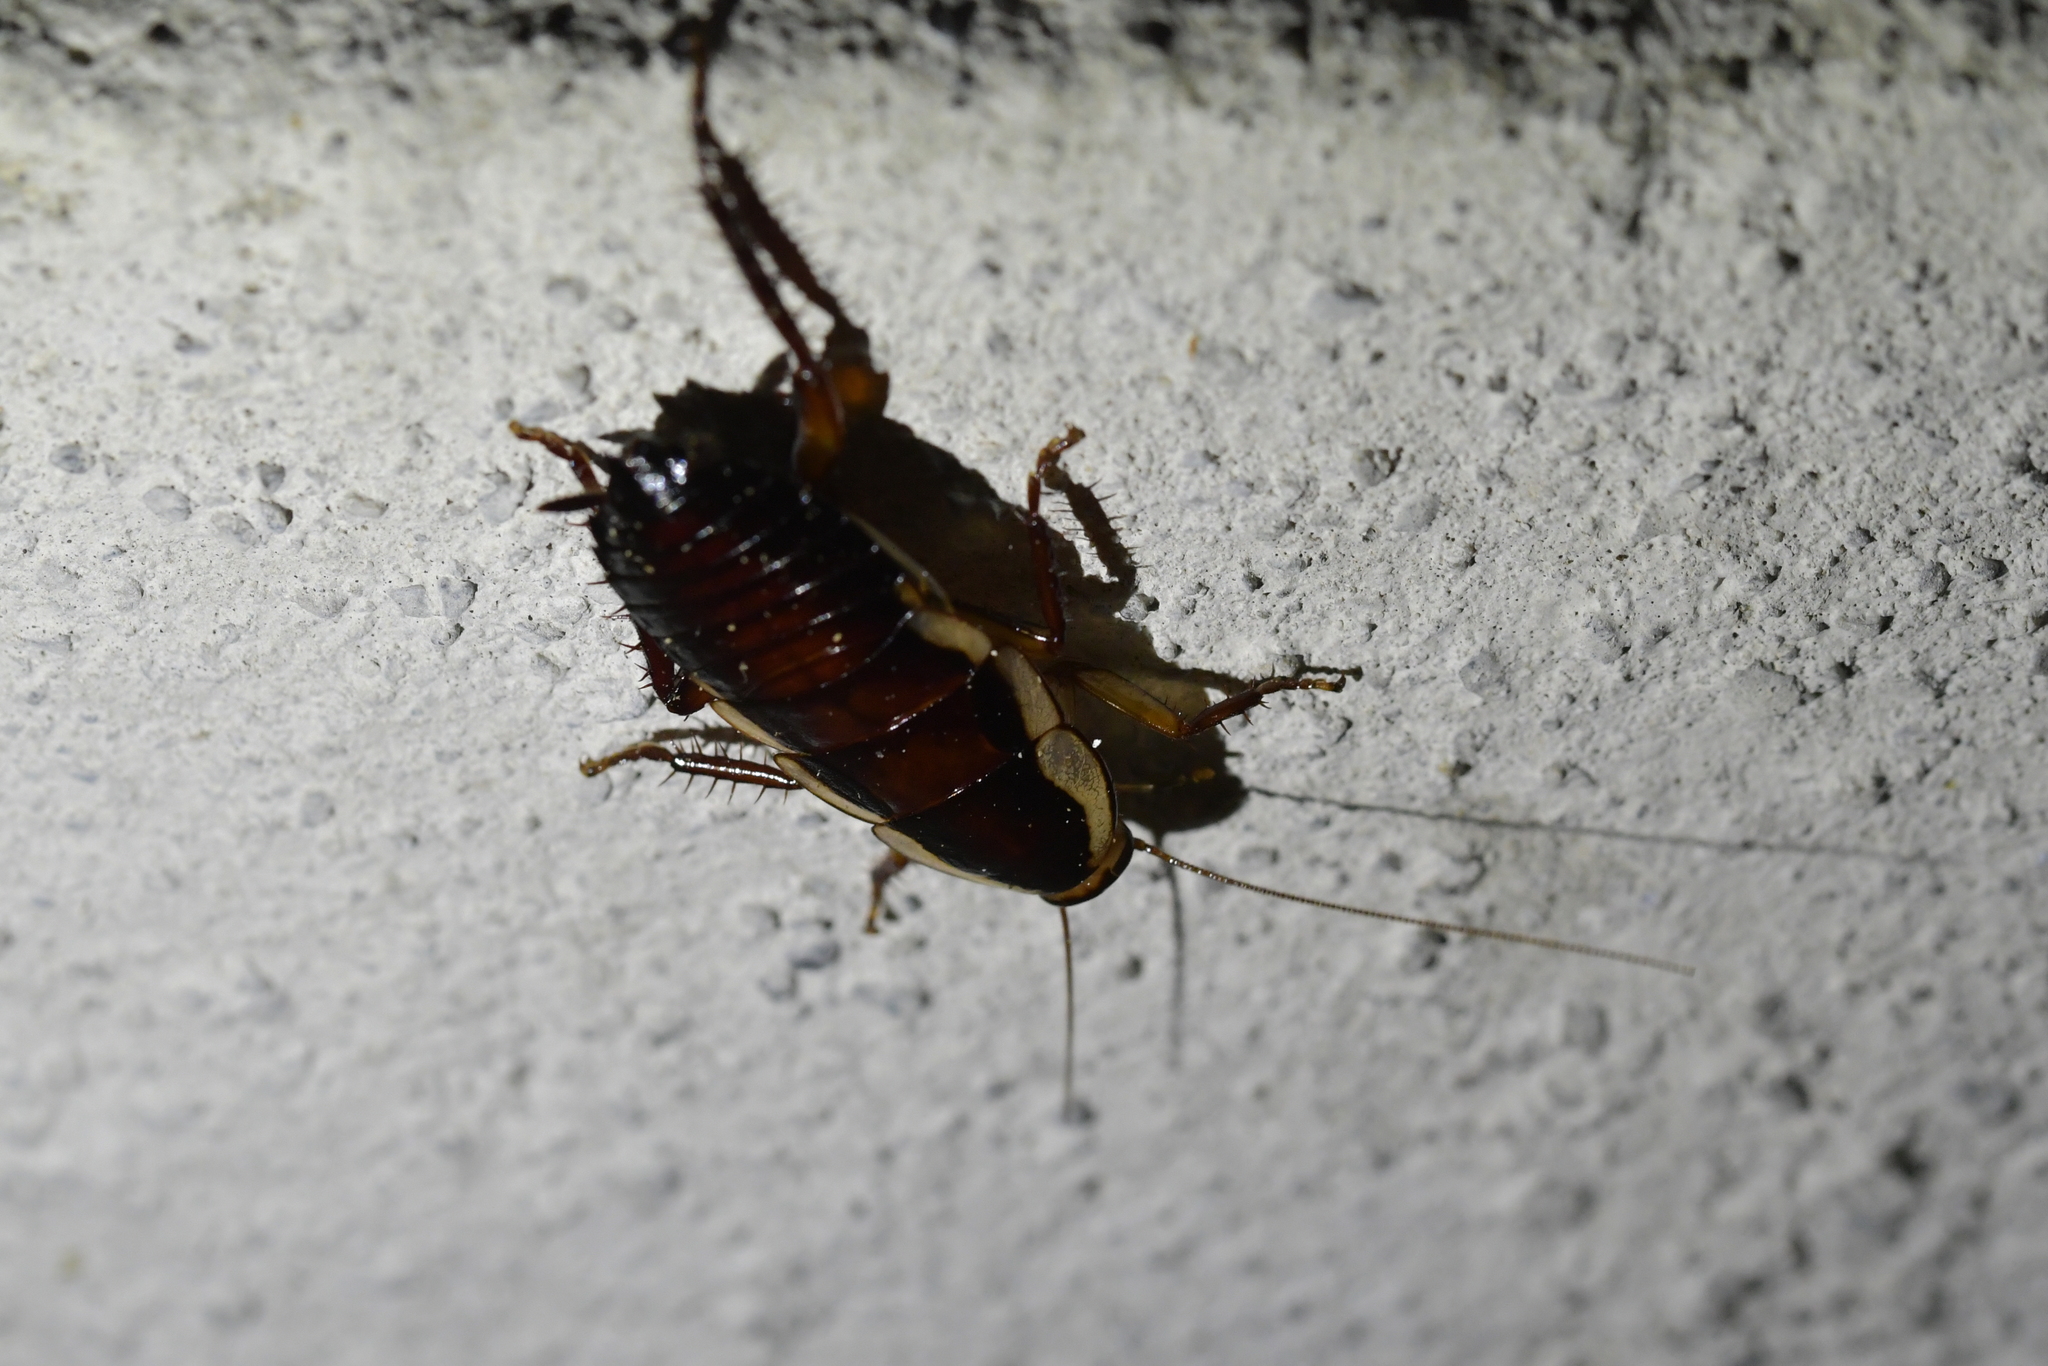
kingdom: Animalia
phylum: Arthropoda
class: Insecta
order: Blattodea
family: Blattidae
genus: Drymaplaneta
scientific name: Drymaplaneta semivitta
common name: Gisborne cockroach
